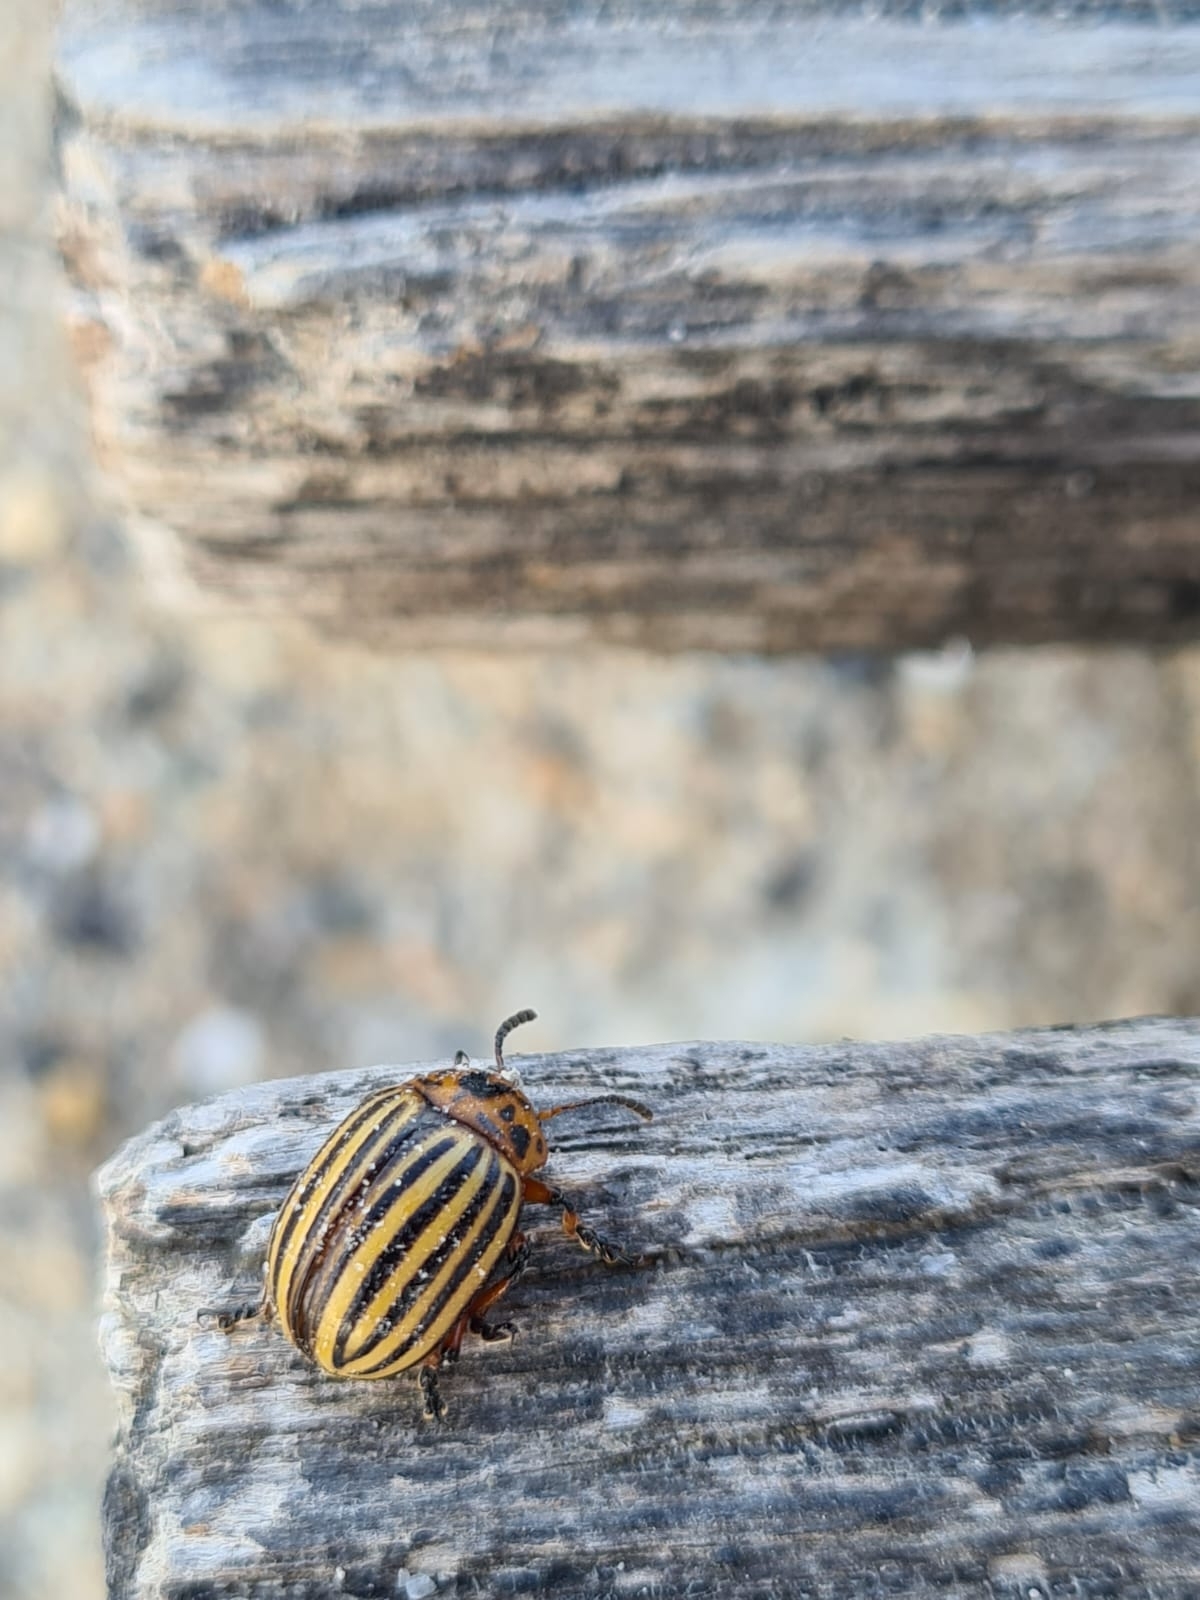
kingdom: Animalia
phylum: Arthropoda
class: Insecta
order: Coleoptera
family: Chrysomelidae
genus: Leptinotarsa
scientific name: Leptinotarsa decemlineata
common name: Colorado potato beetle
